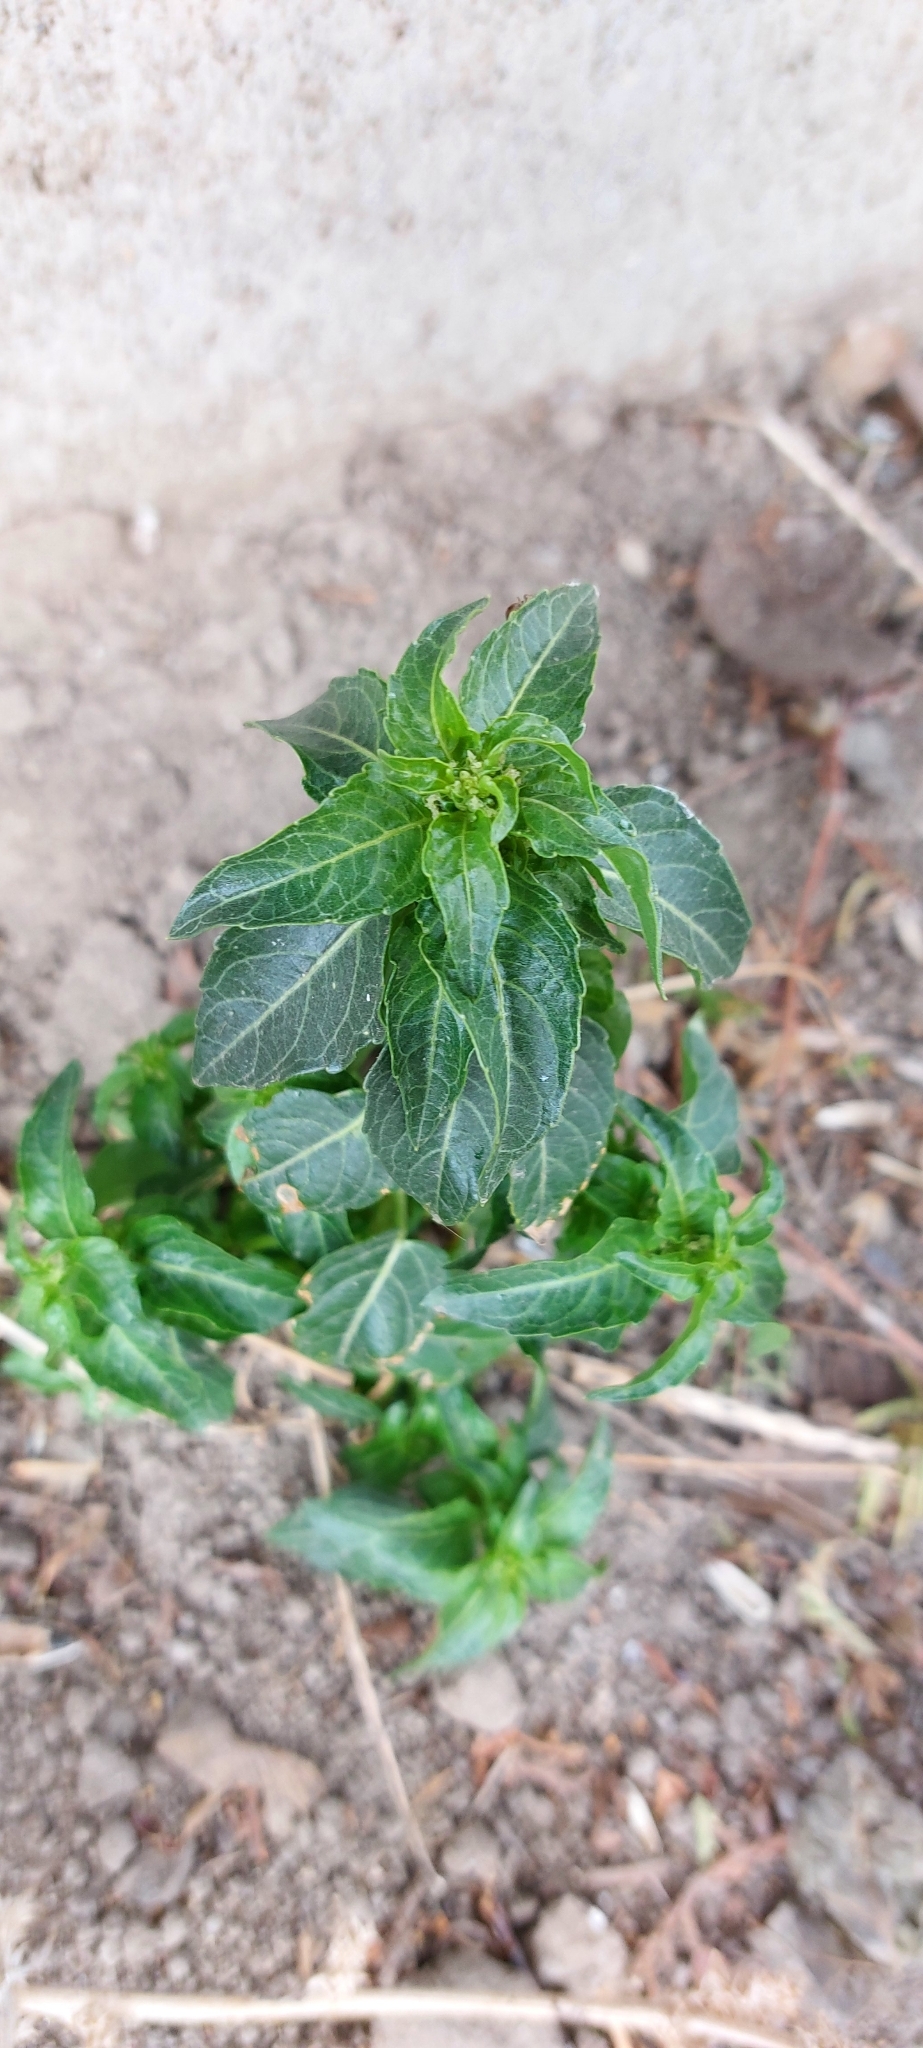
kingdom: Plantae
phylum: Tracheophyta
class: Magnoliopsida
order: Malpighiales
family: Euphorbiaceae
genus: Mercurialis
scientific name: Mercurialis annua
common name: Annual mercury
